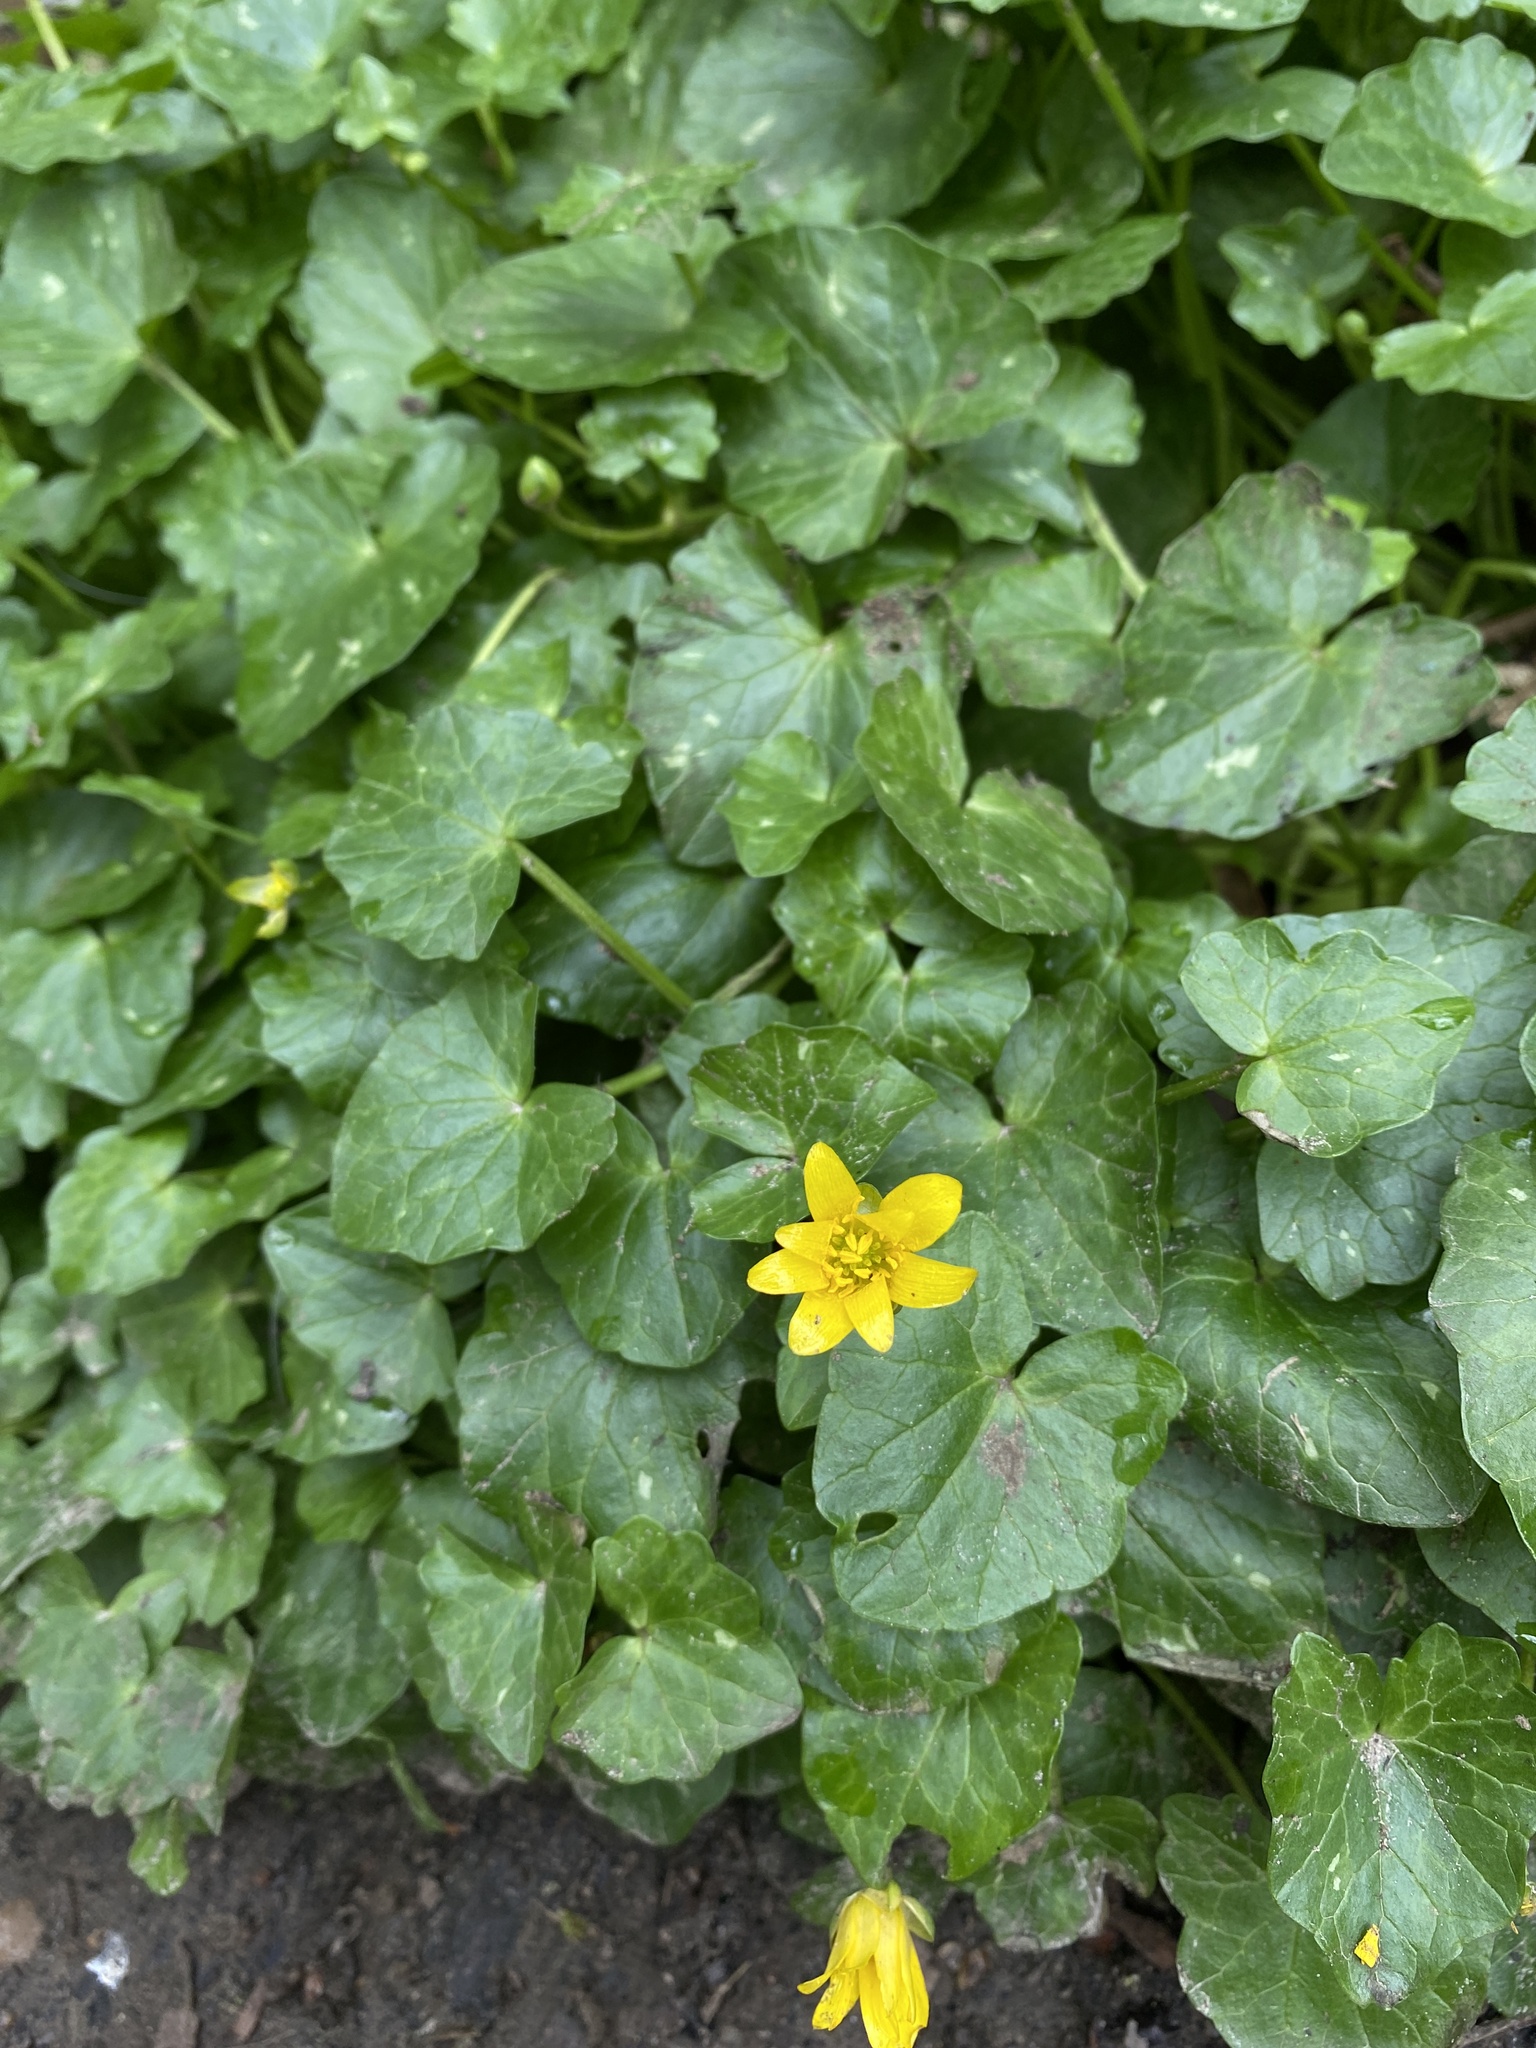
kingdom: Plantae
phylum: Tracheophyta
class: Magnoliopsida
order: Ranunculales
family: Ranunculaceae
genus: Ficaria
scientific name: Ficaria verna
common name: Lesser celandine
